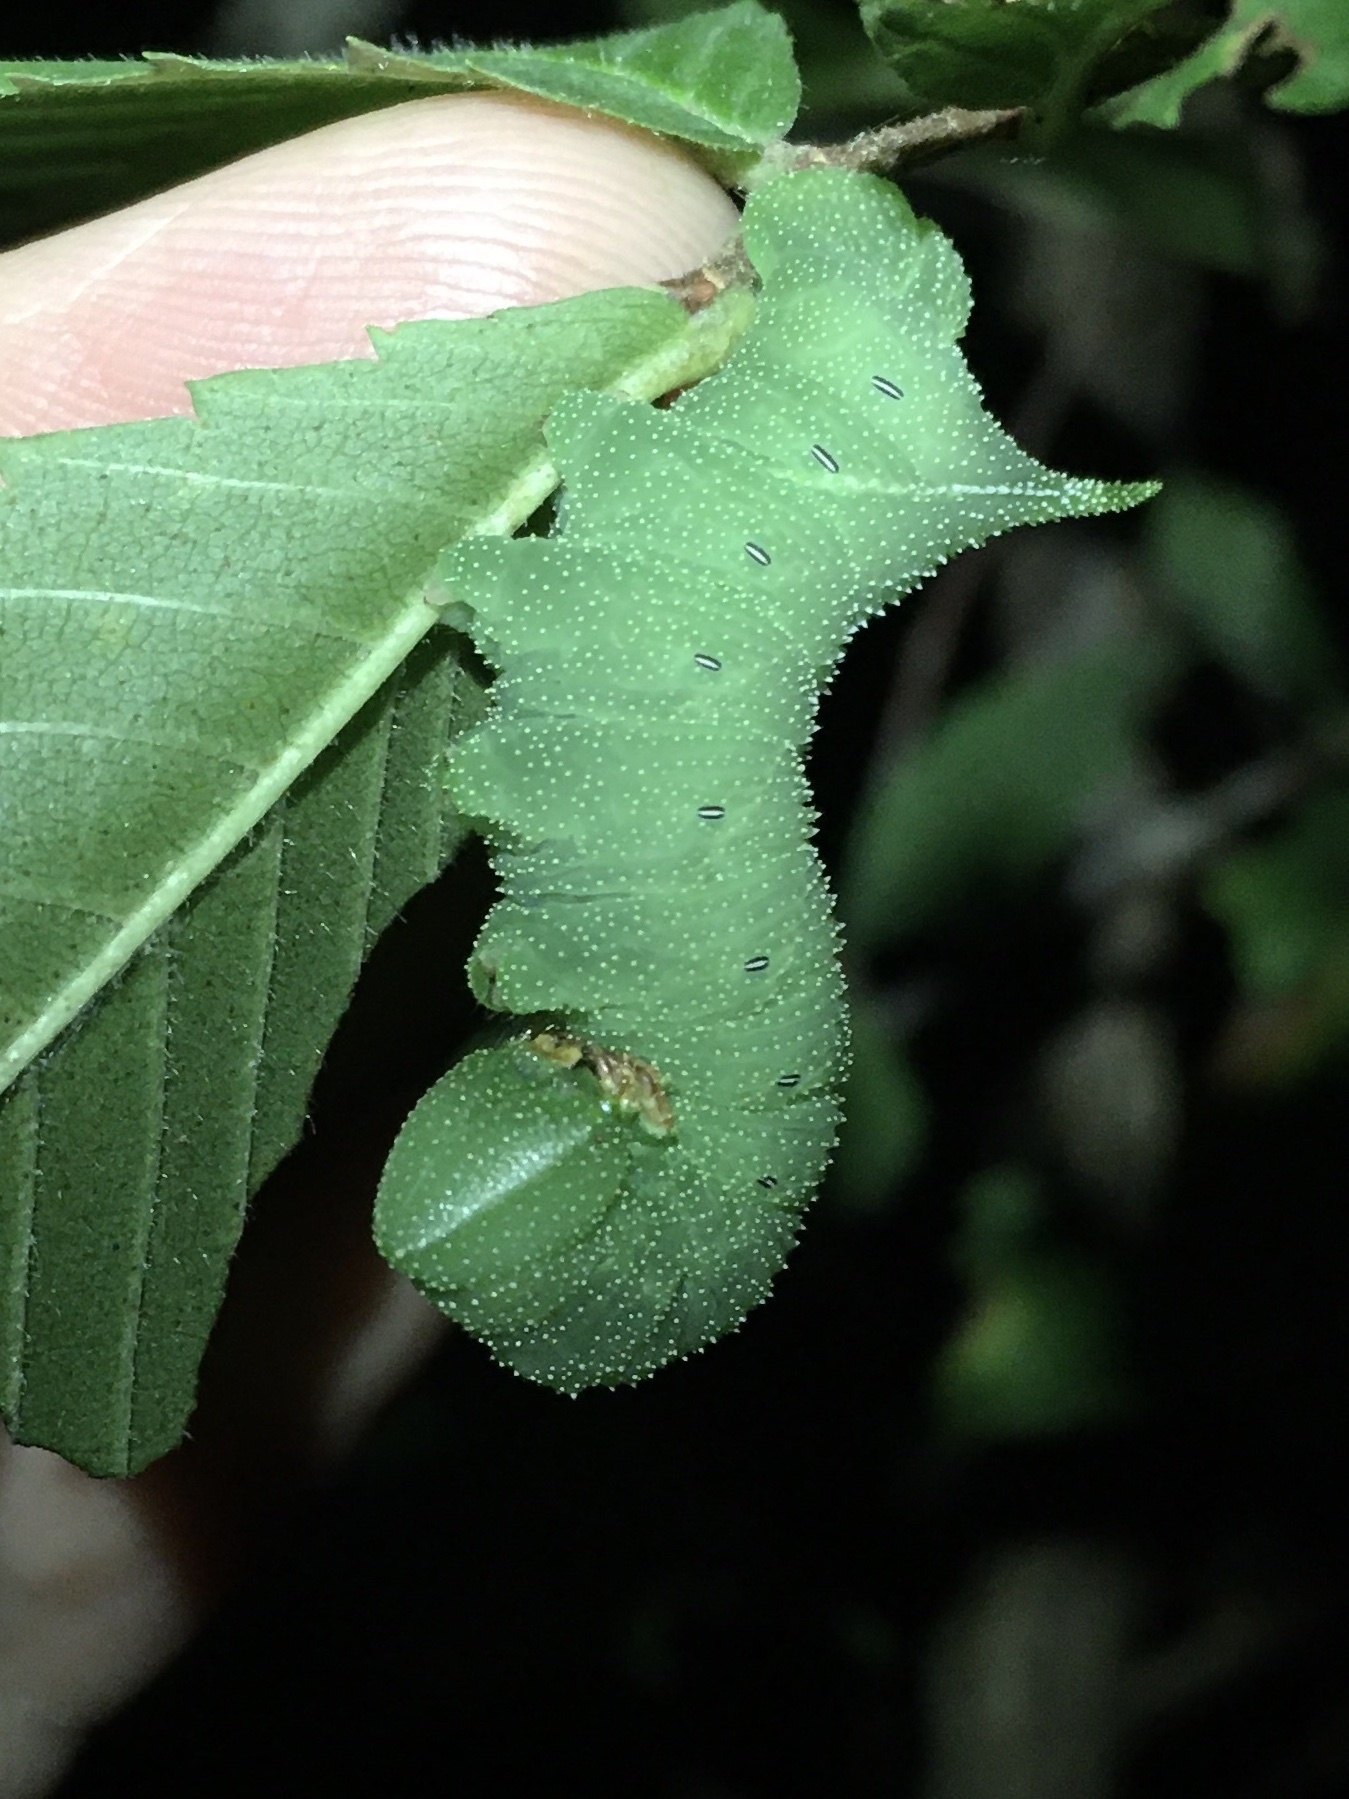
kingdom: Animalia
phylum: Arthropoda
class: Insecta
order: Lepidoptera
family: Sphingidae
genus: Paonias
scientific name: Paonias excaecata
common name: Blind-eyed sphinx
